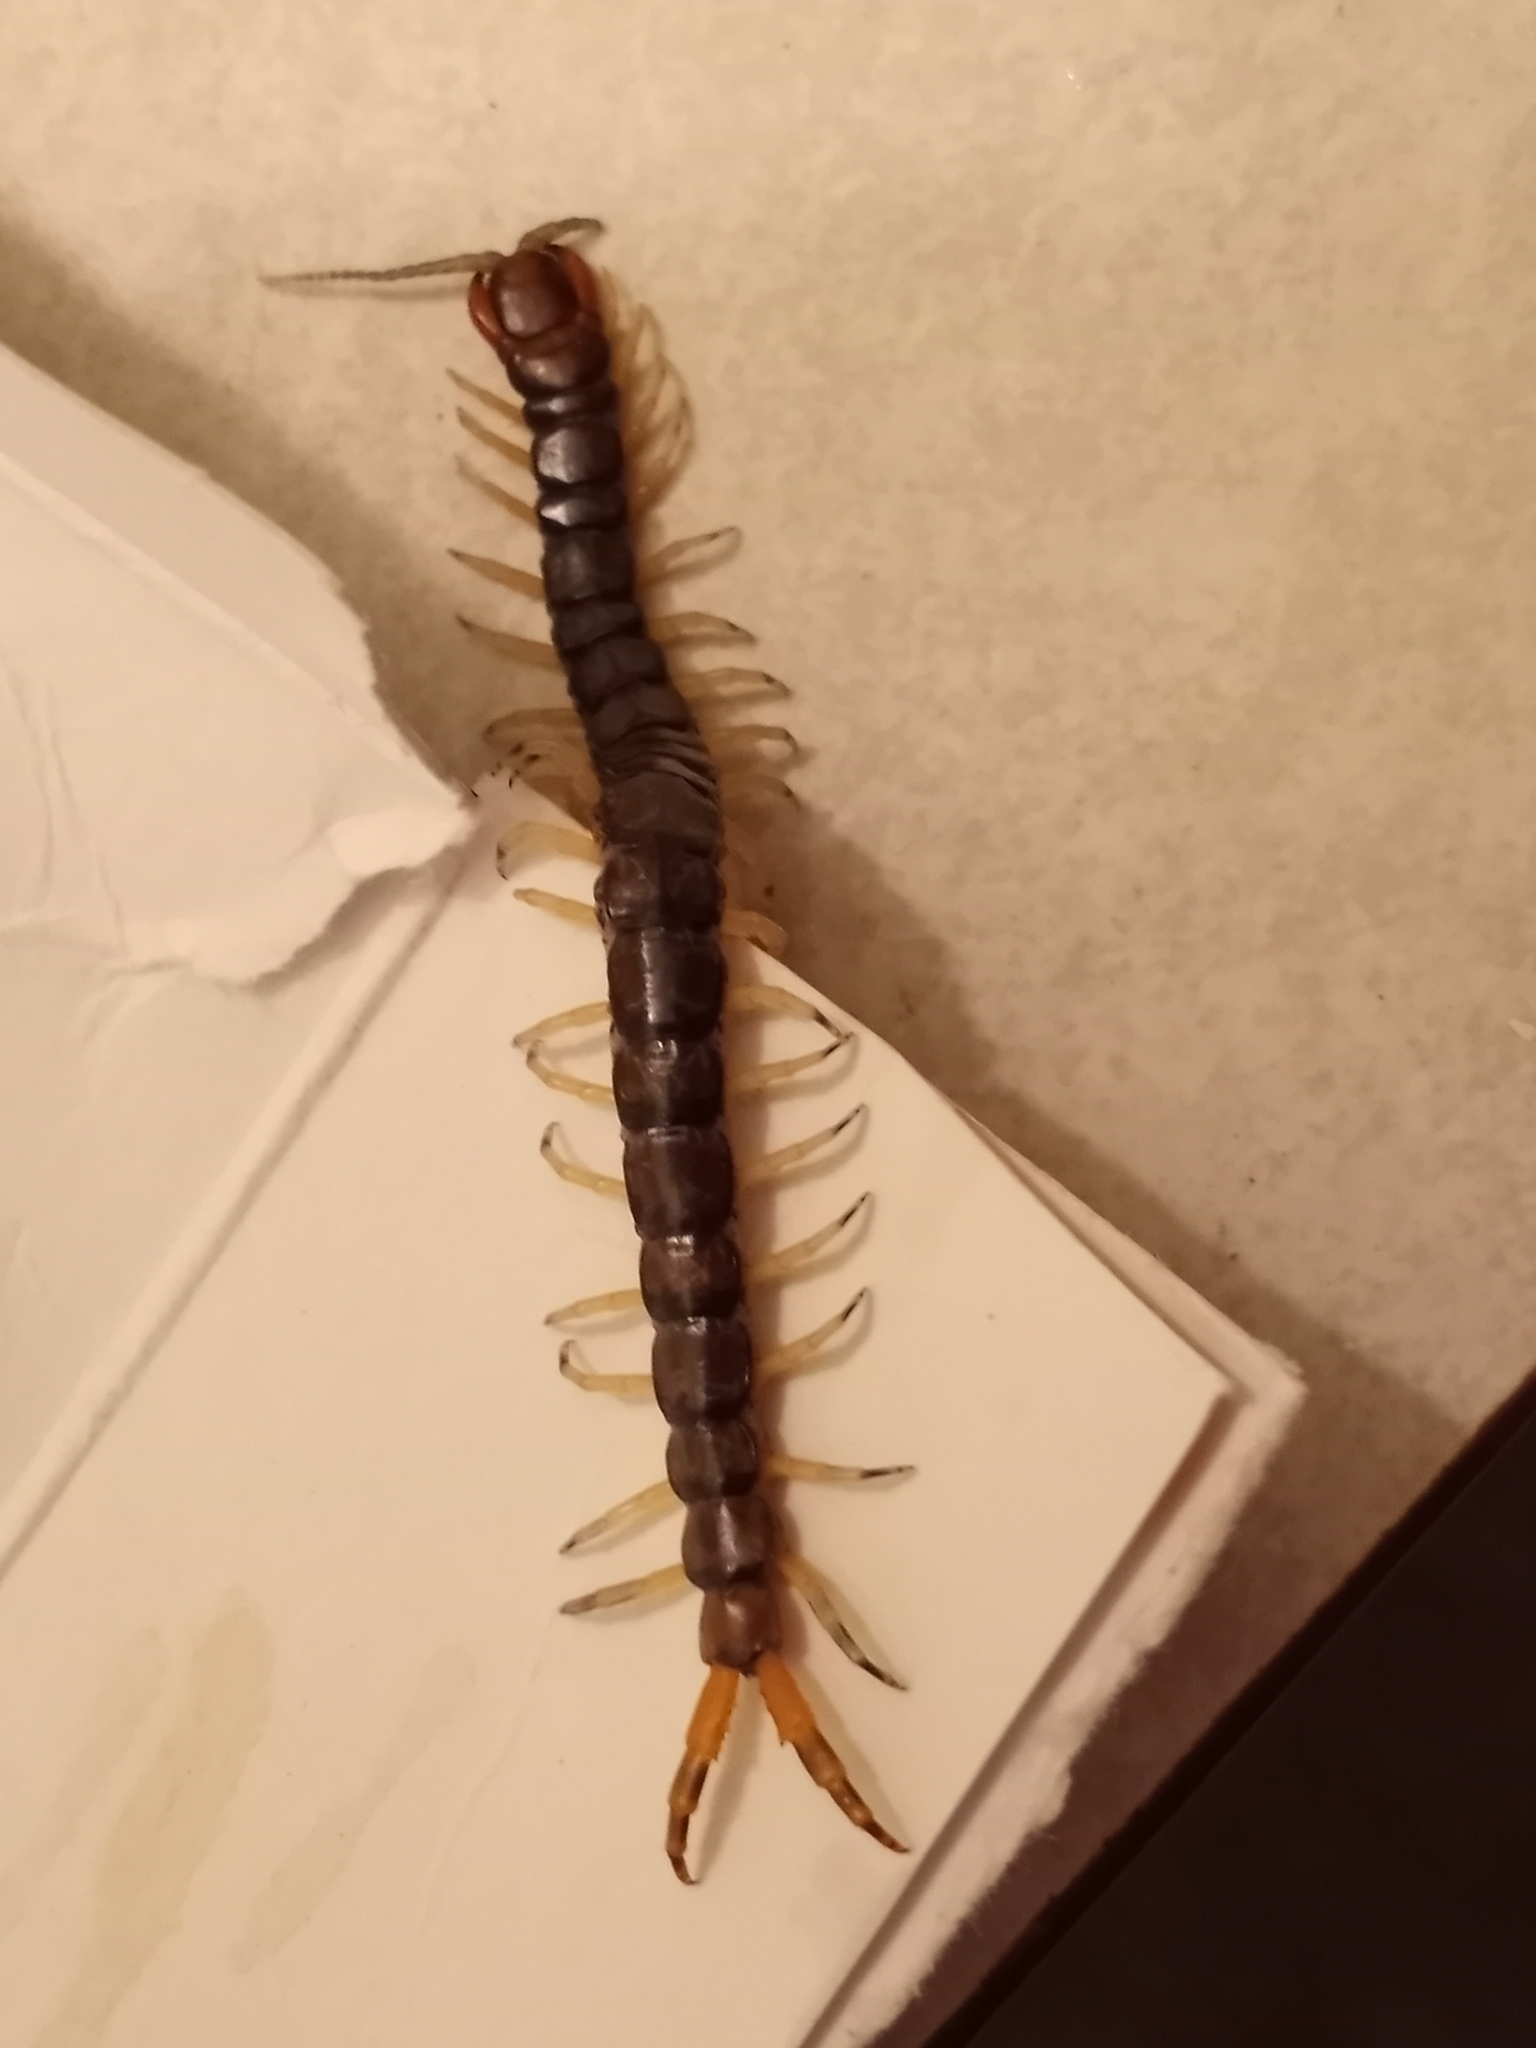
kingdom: Animalia
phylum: Arthropoda
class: Chilopoda
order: Scolopendromorpha
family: Scolopendridae
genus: Hemiscolopendra
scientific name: Hemiscolopendra marginata
